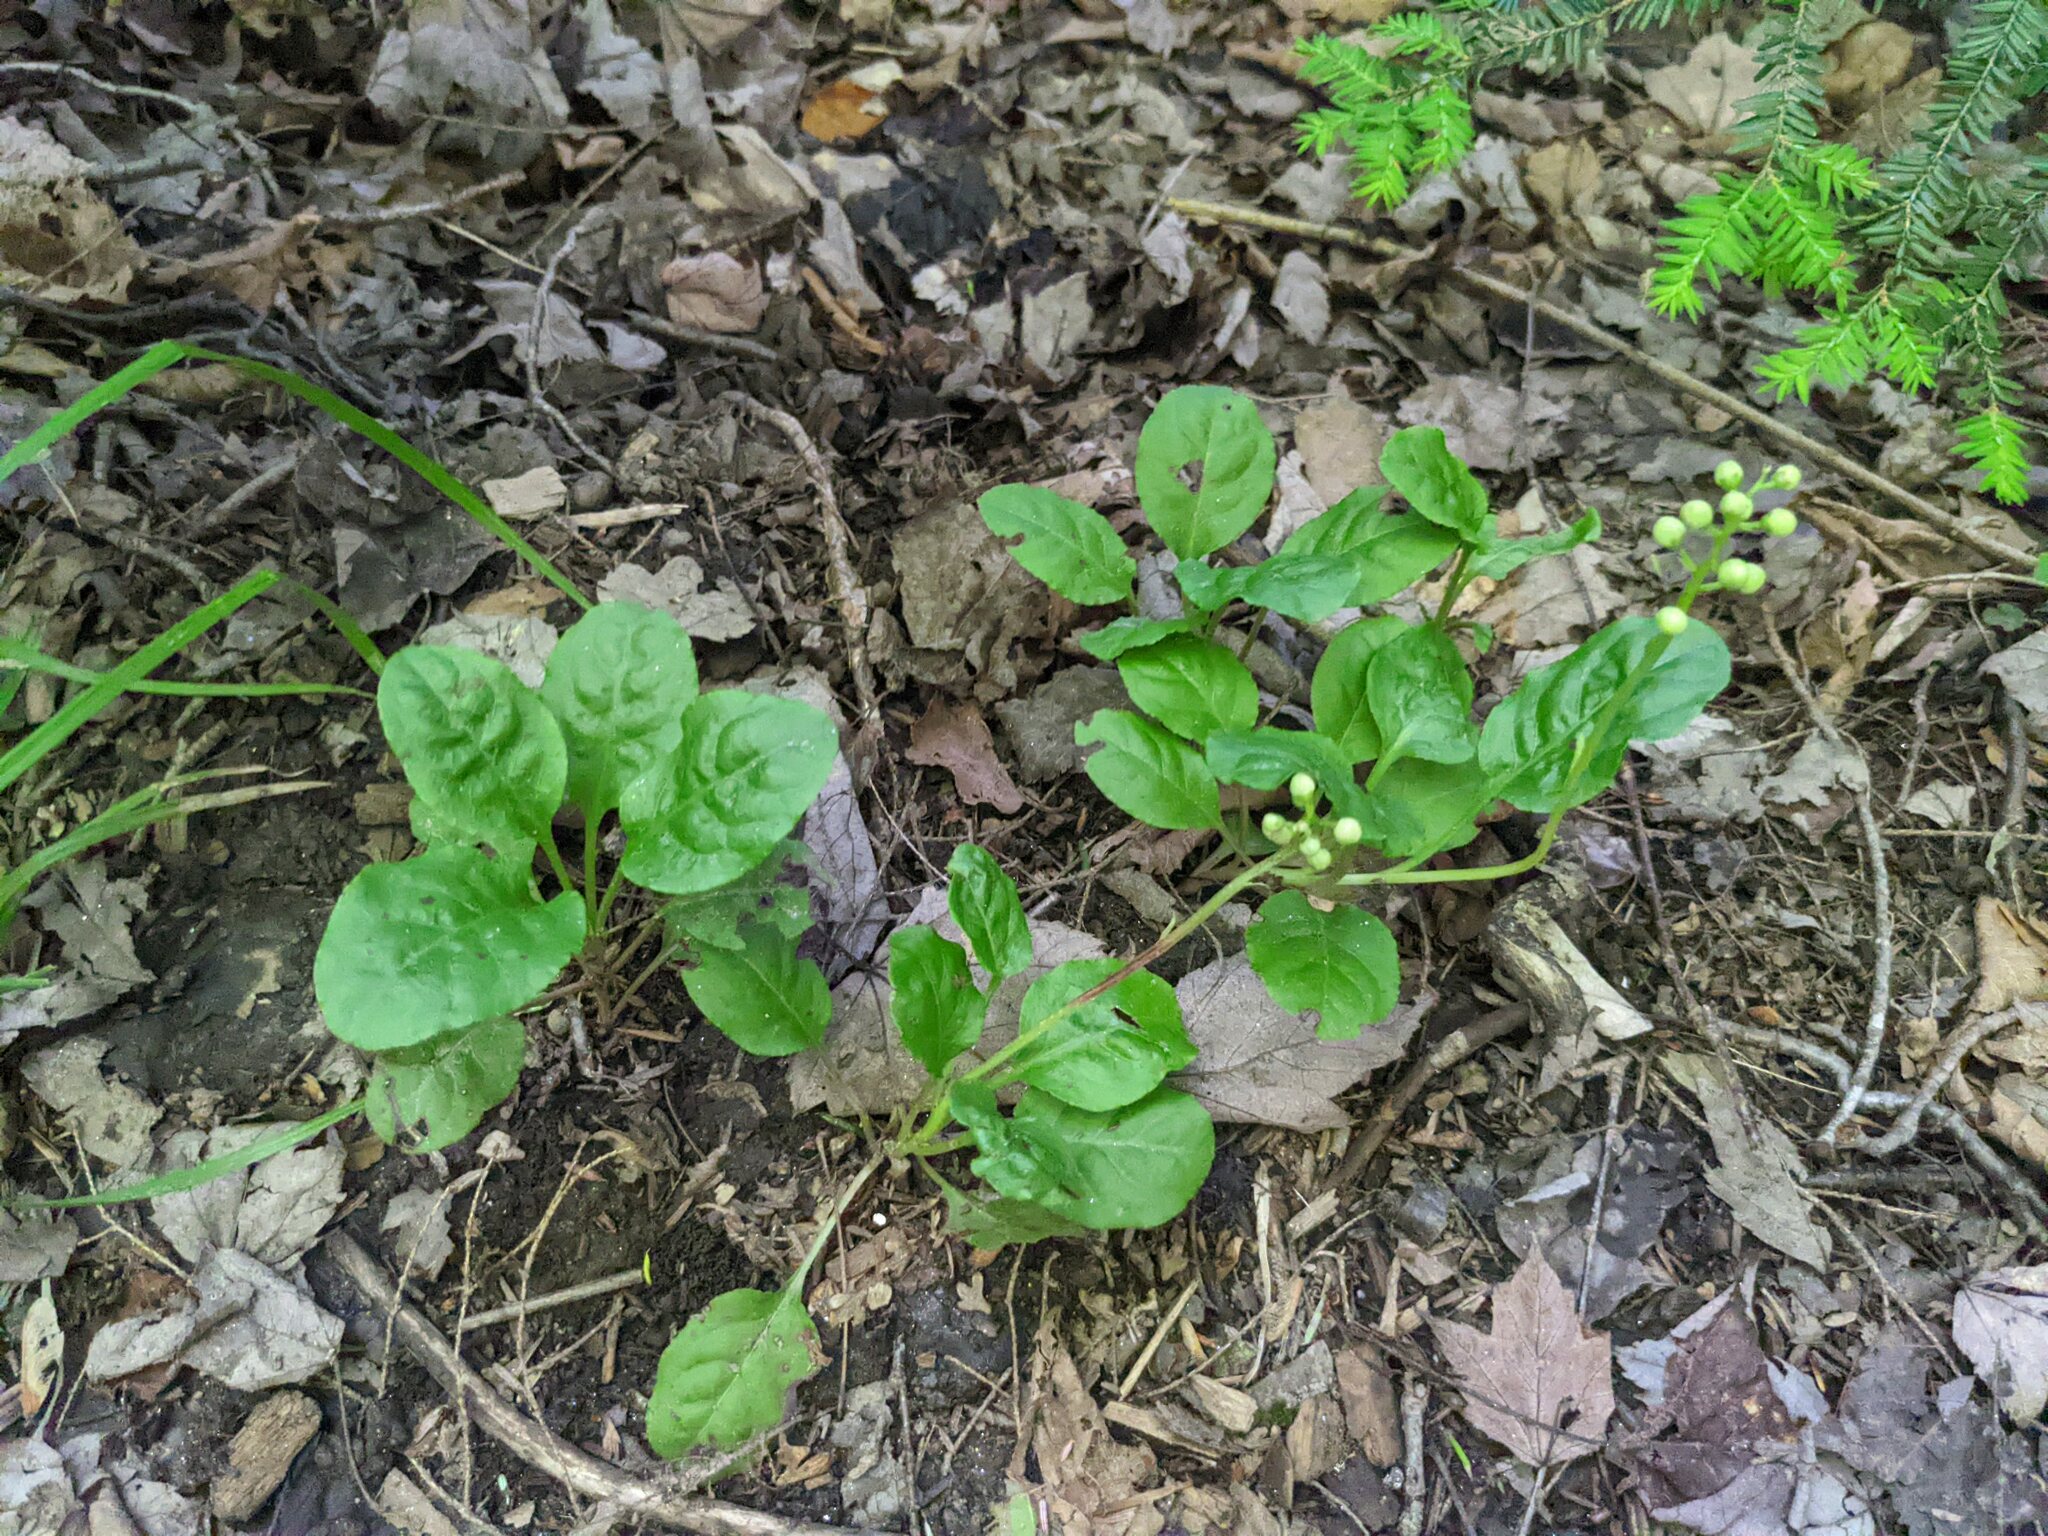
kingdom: Plantae
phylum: Tracheophyta
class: Magnoliopsida
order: Ericales
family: Ericaceae
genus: Pyrola
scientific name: Pyrola elliptica
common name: Shinleaf
